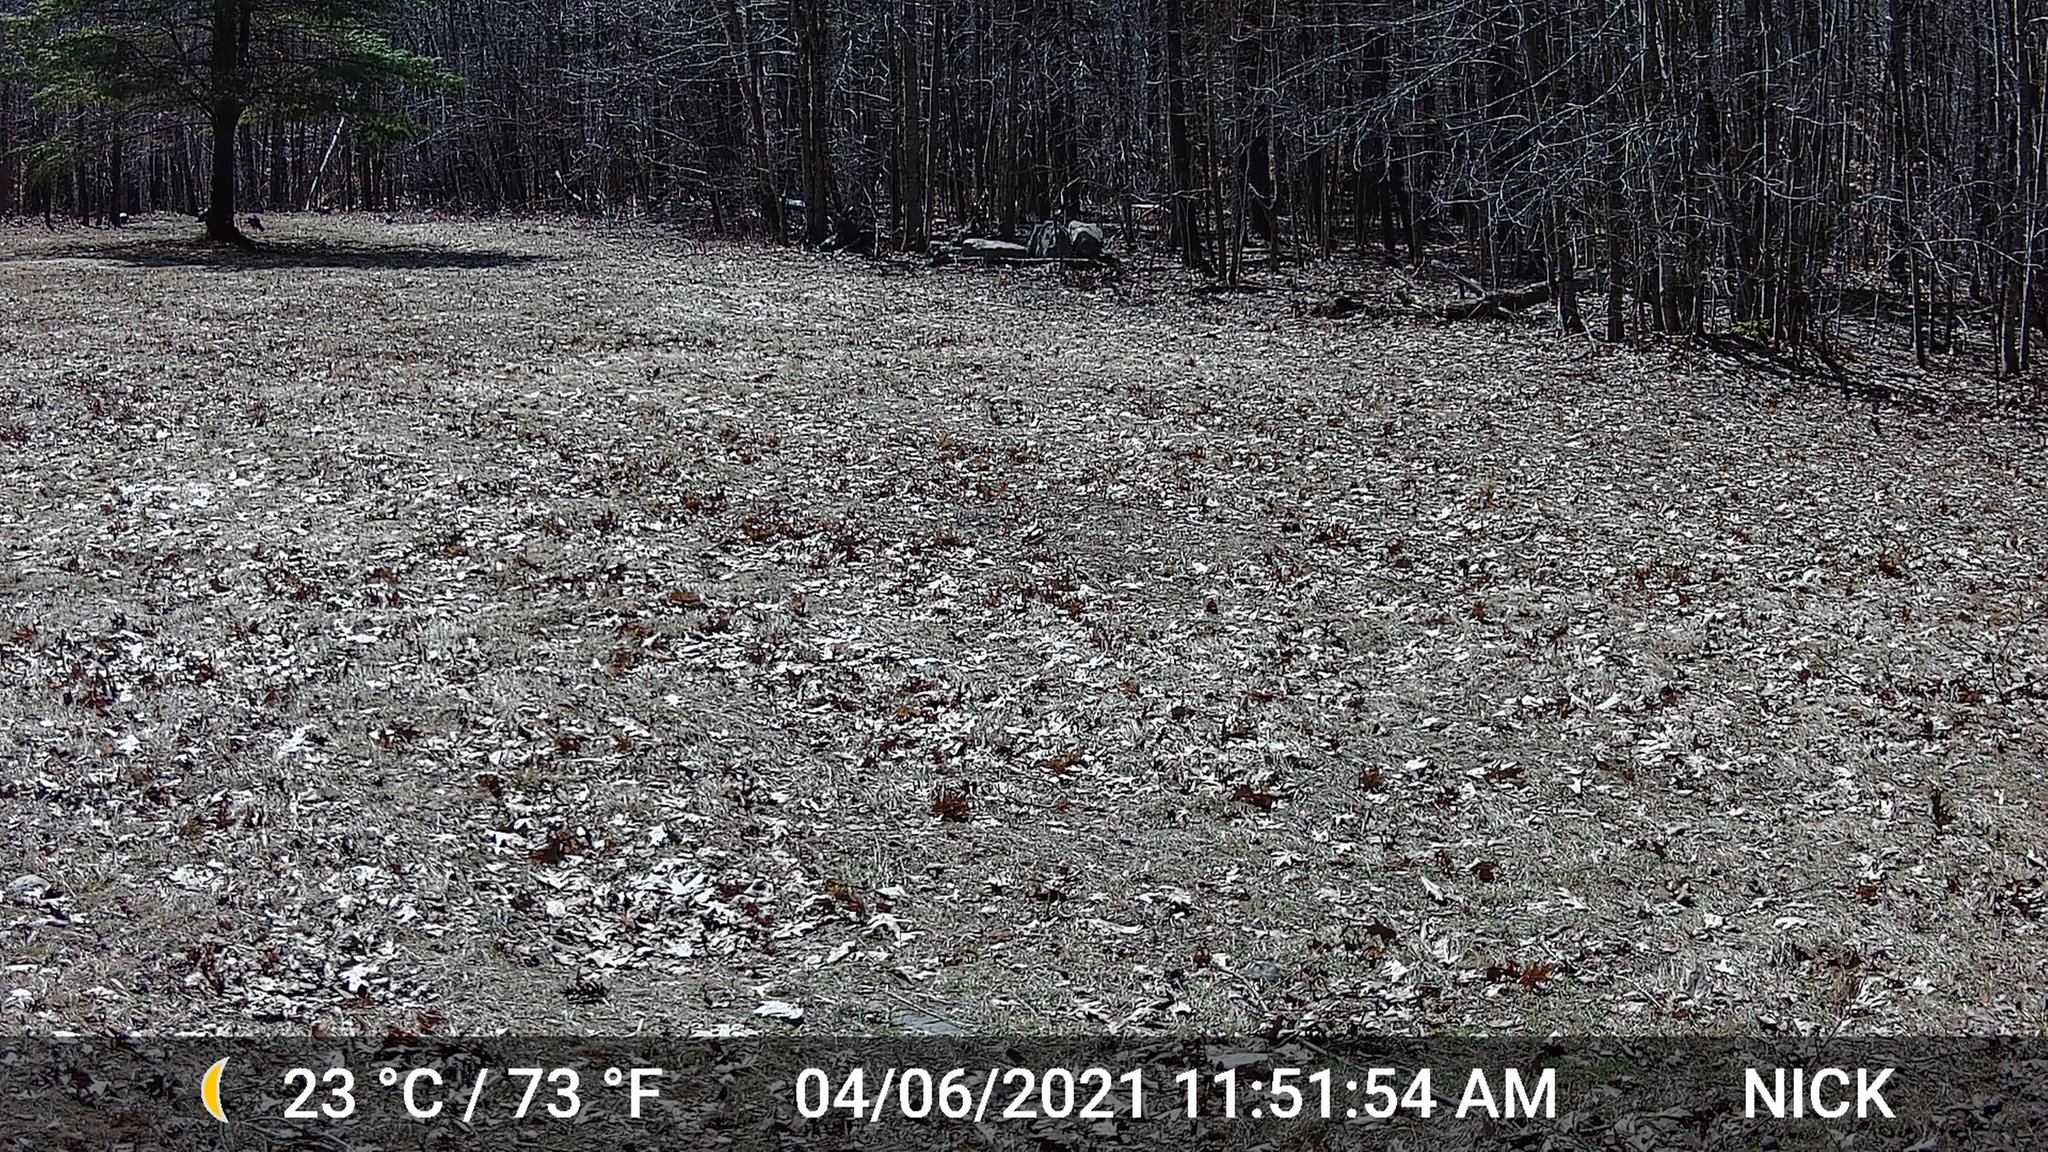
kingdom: Animalia
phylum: Chordata
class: Aves
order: Galliformes
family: Phasianidae
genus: Meleagris
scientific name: Meleagris gallopavo
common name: Wild turkey
